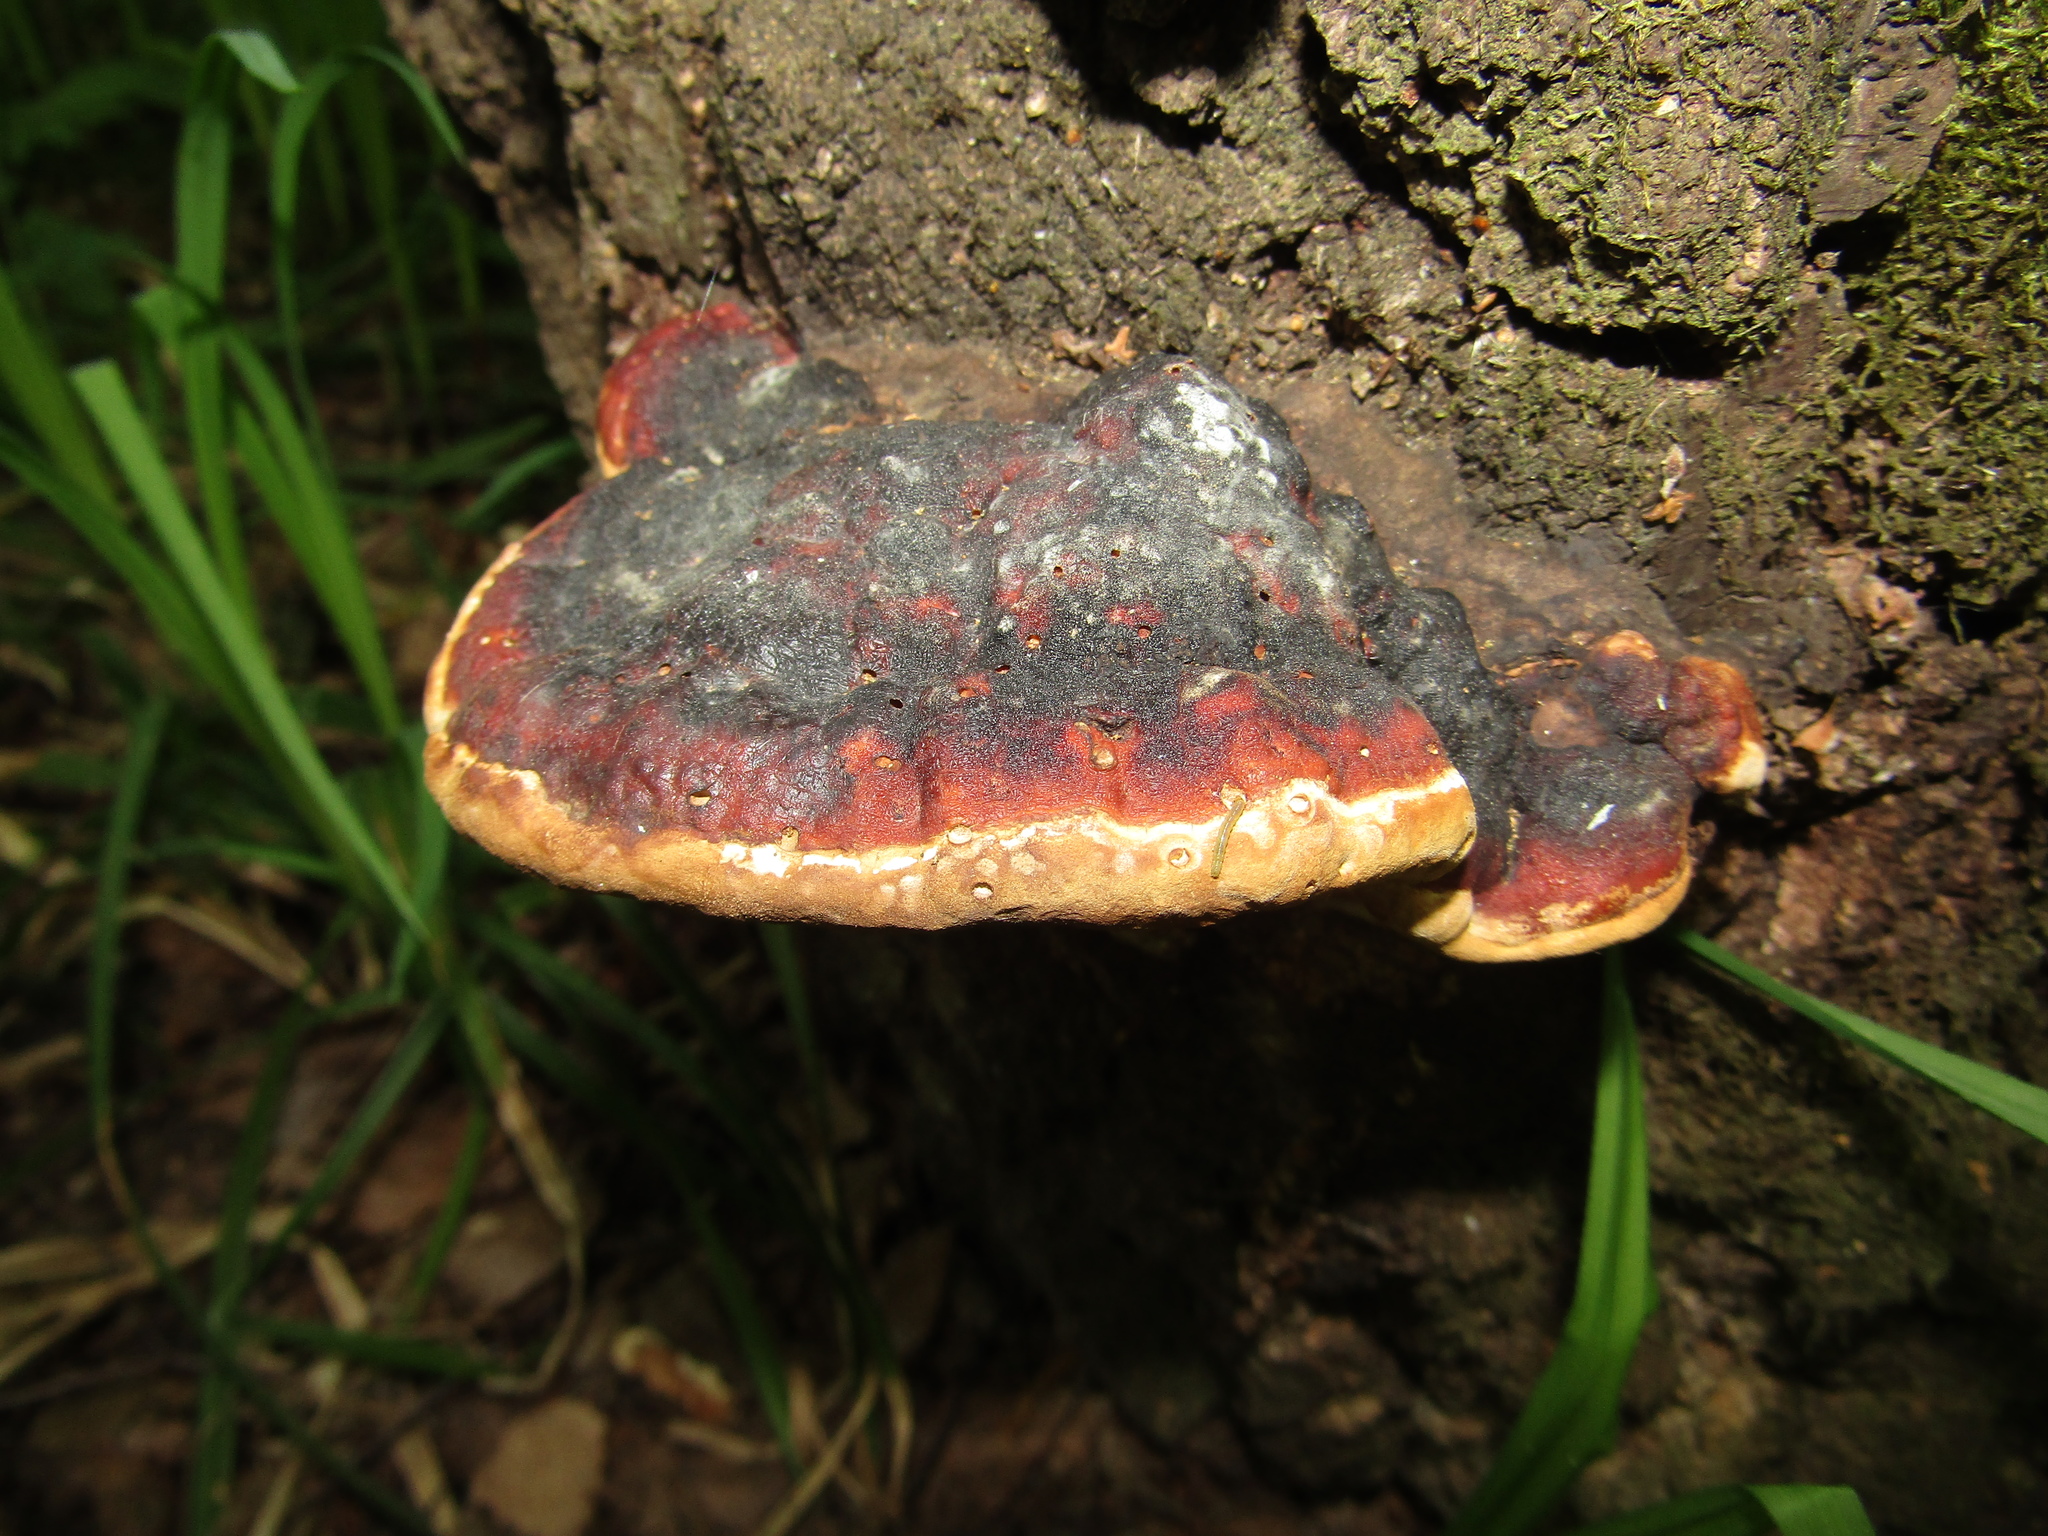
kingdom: Fungi
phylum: Basidiomycota
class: Agaricomycetes
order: Polyporales
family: Fomitopsidaceae
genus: Fomitopsis
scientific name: Fomitopsis pinicola
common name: Red-belted bracket
